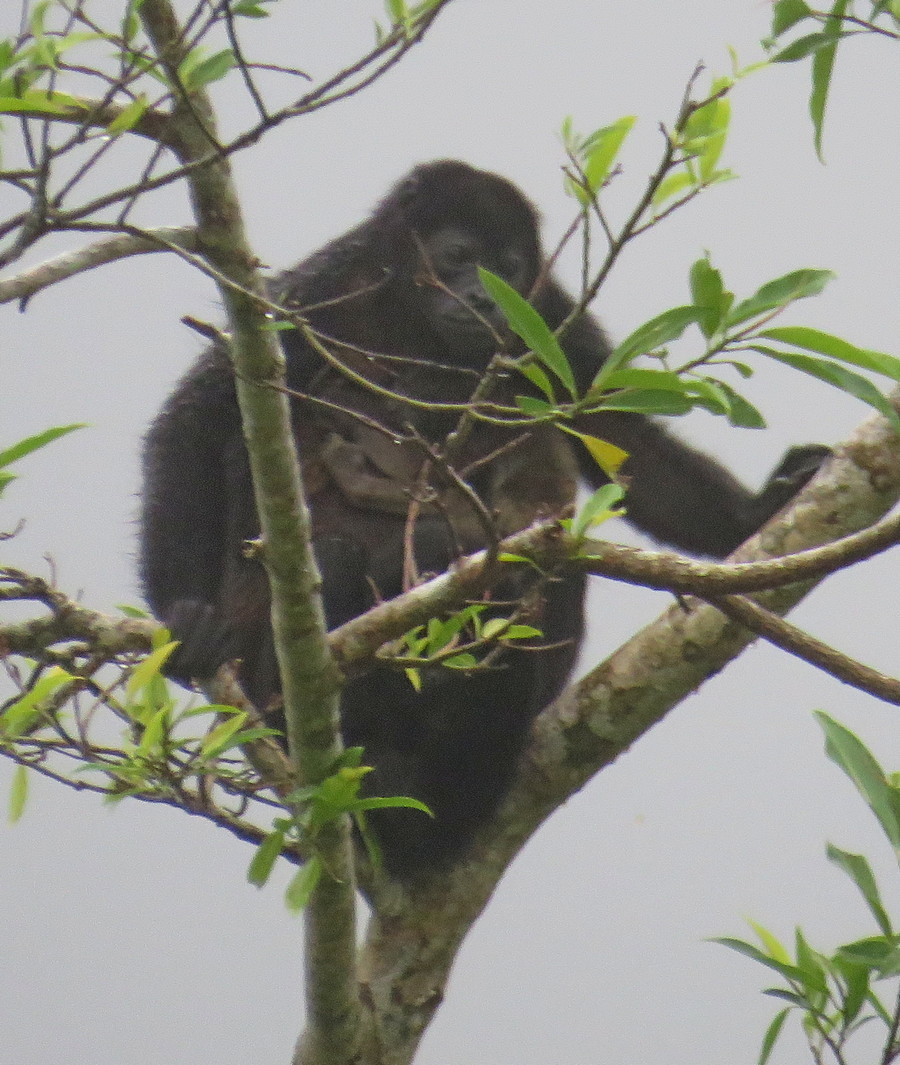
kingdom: Animalia
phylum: Chordata
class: Mammalia
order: Primates
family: Atelidae
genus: Alouatta
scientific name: Alouatta palliata
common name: Mantled howler
